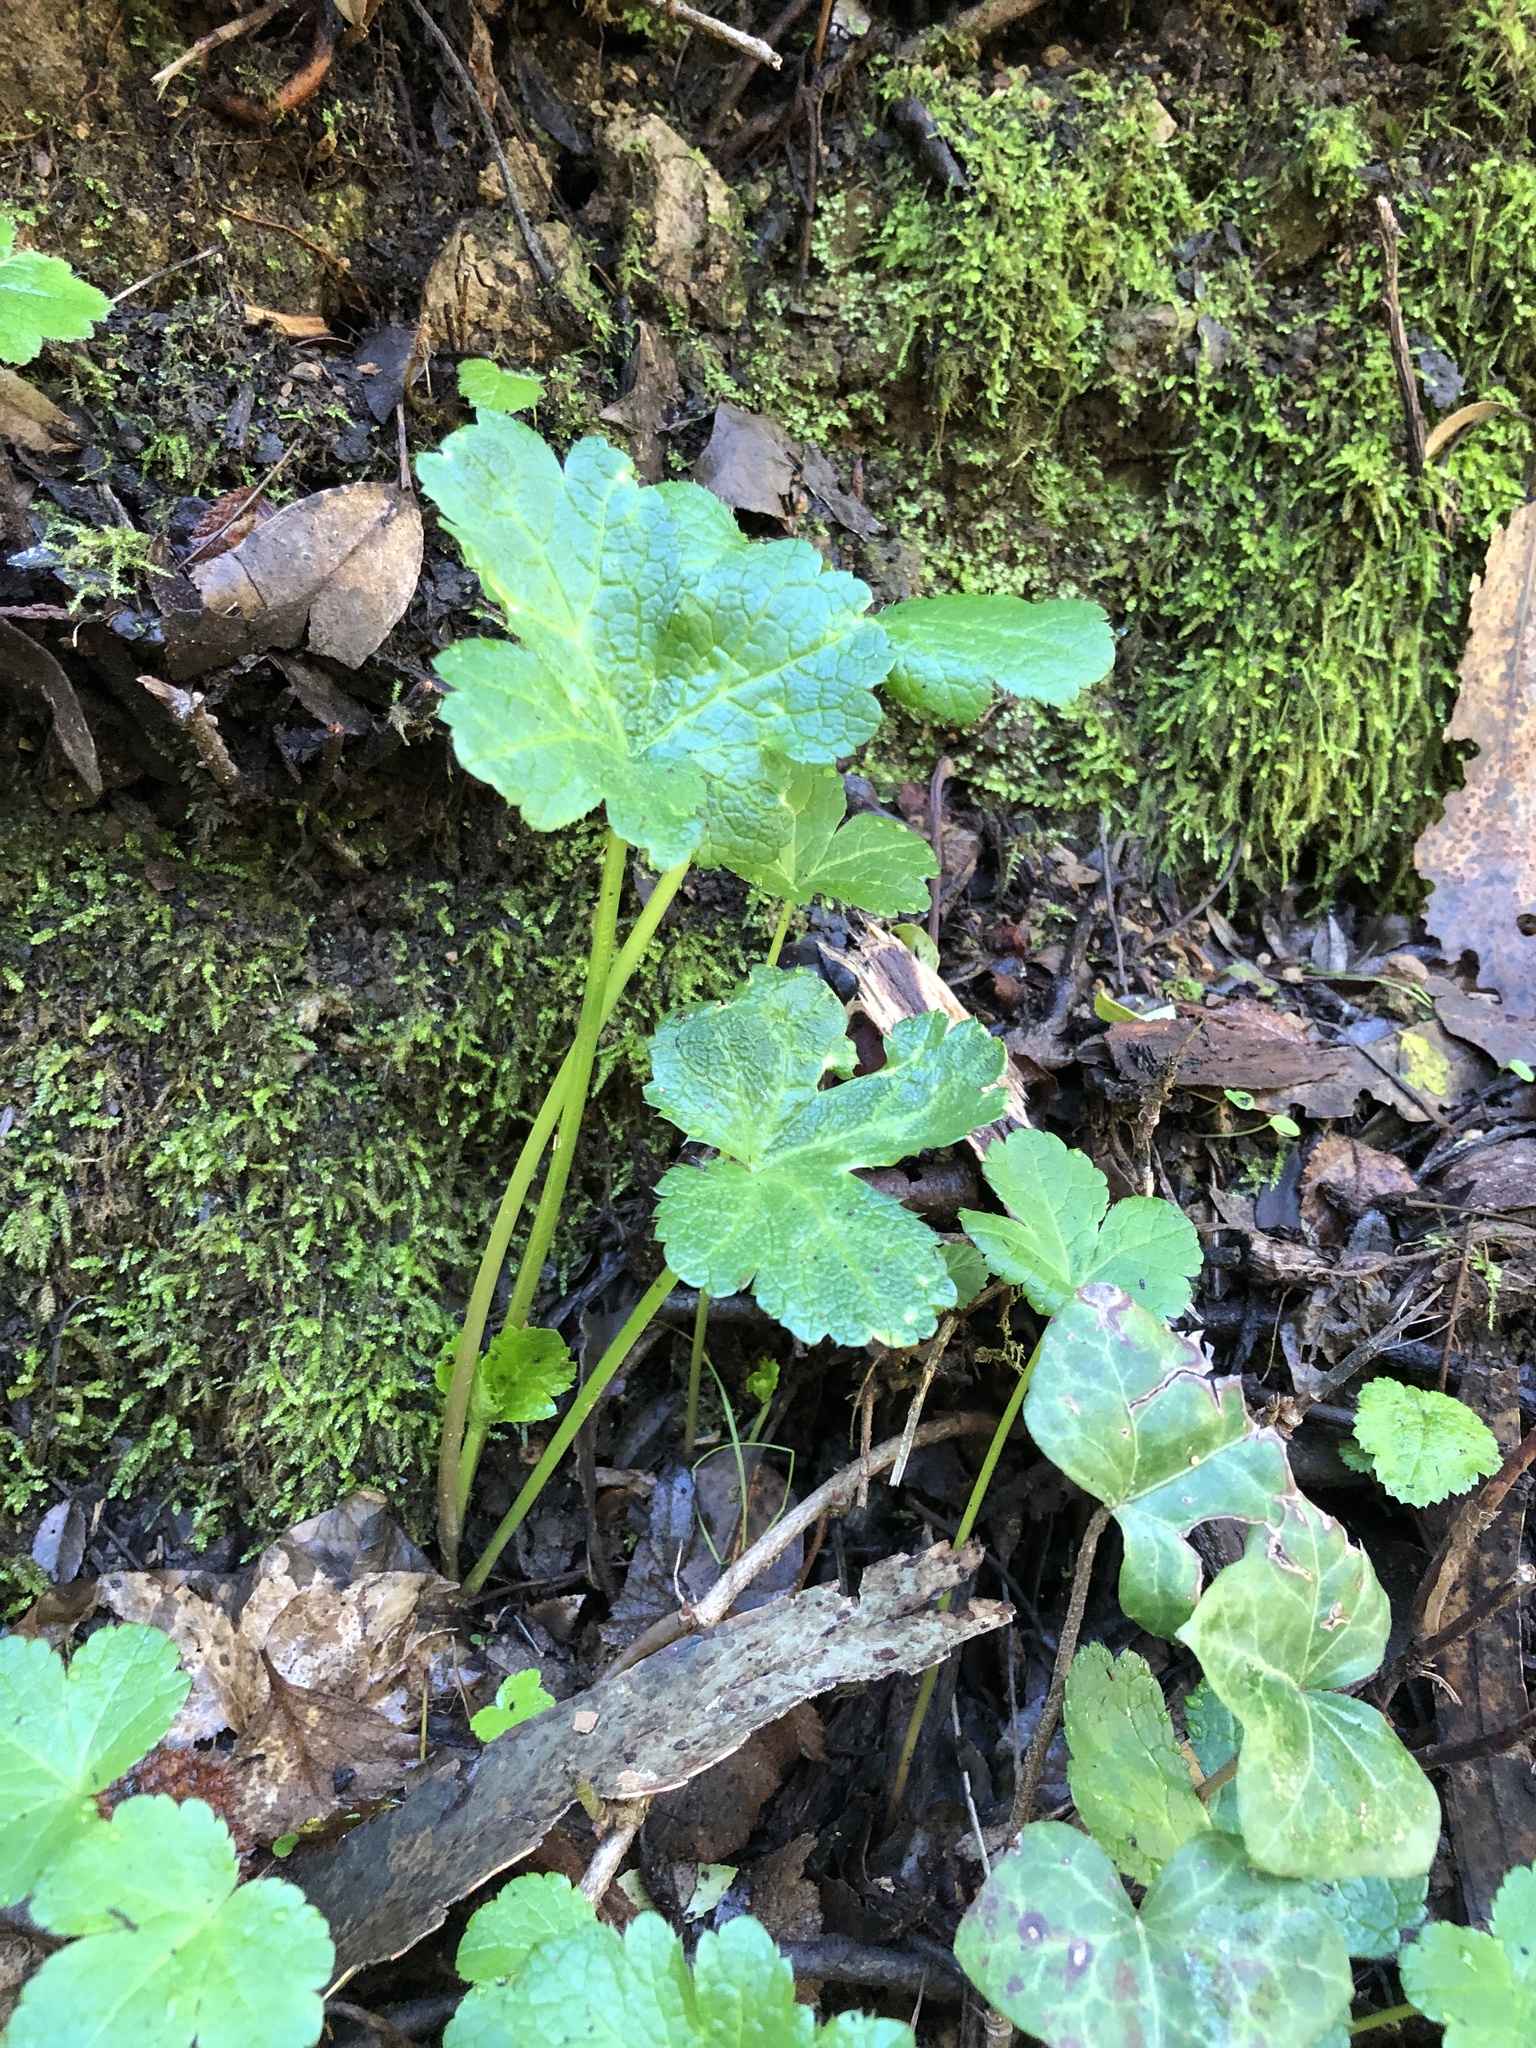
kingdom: Plantae
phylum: Tracheophyta
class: Magnoliopsida
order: Apiales
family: Apiaceae
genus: Sanicula
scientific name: Sanicula crassicaulis
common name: Western snakeroot
